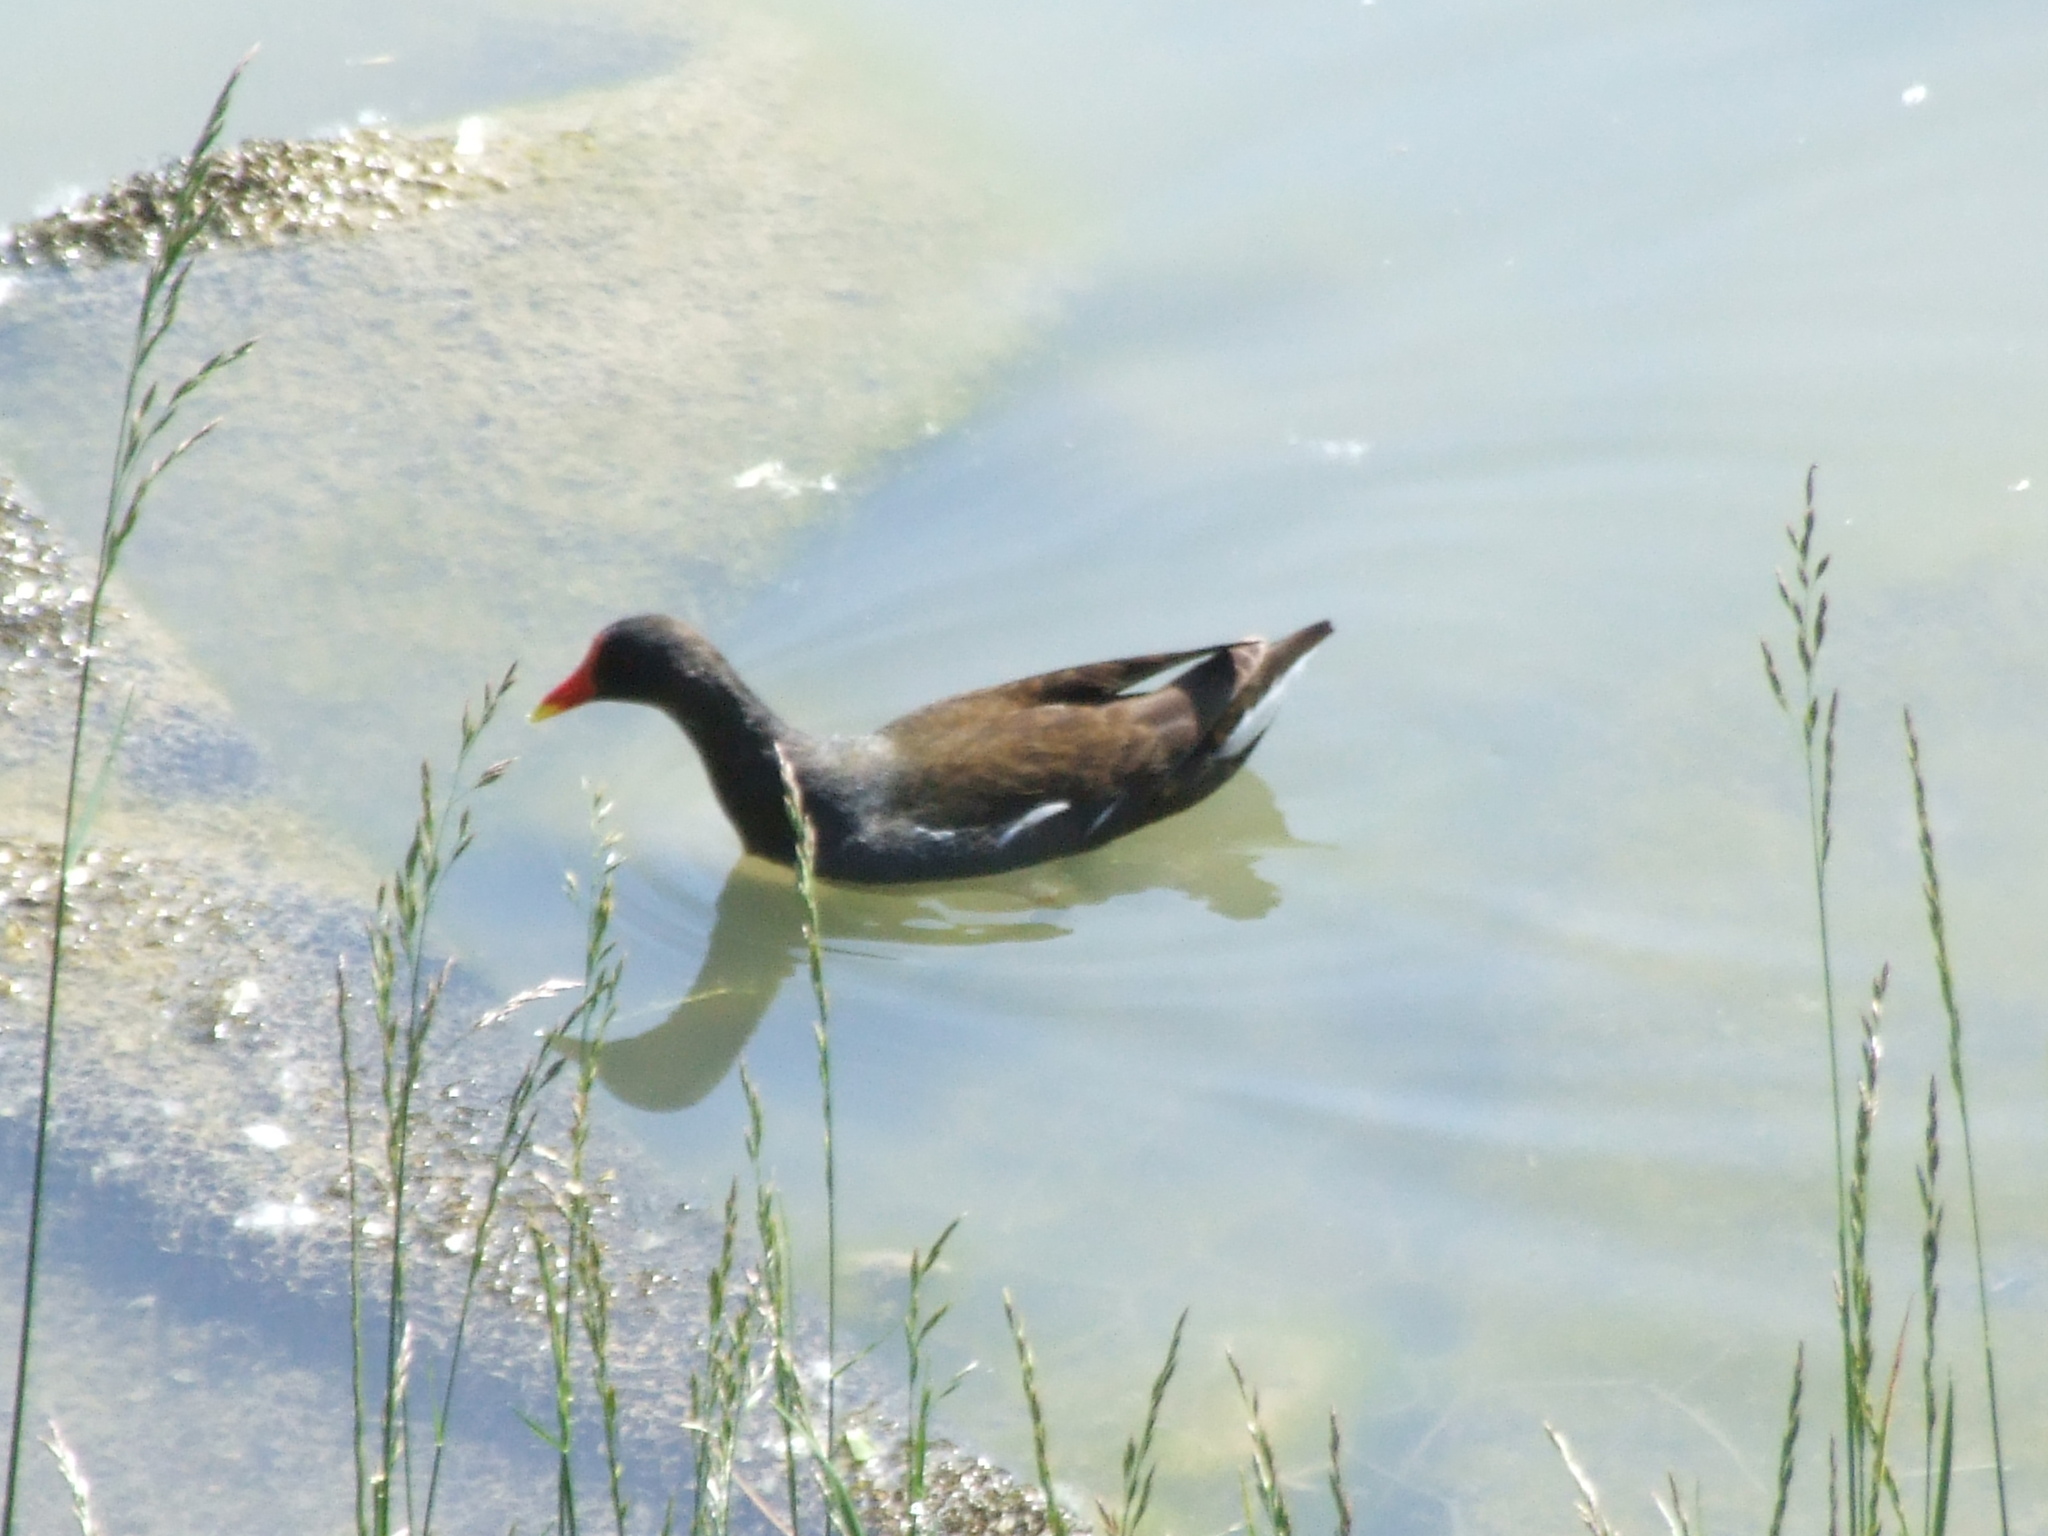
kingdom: Animalia
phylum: Chordata
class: Aves
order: Gruiformes
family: Rallidae
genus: Gallinula
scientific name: Gallinula chloropus
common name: Common moorhen
